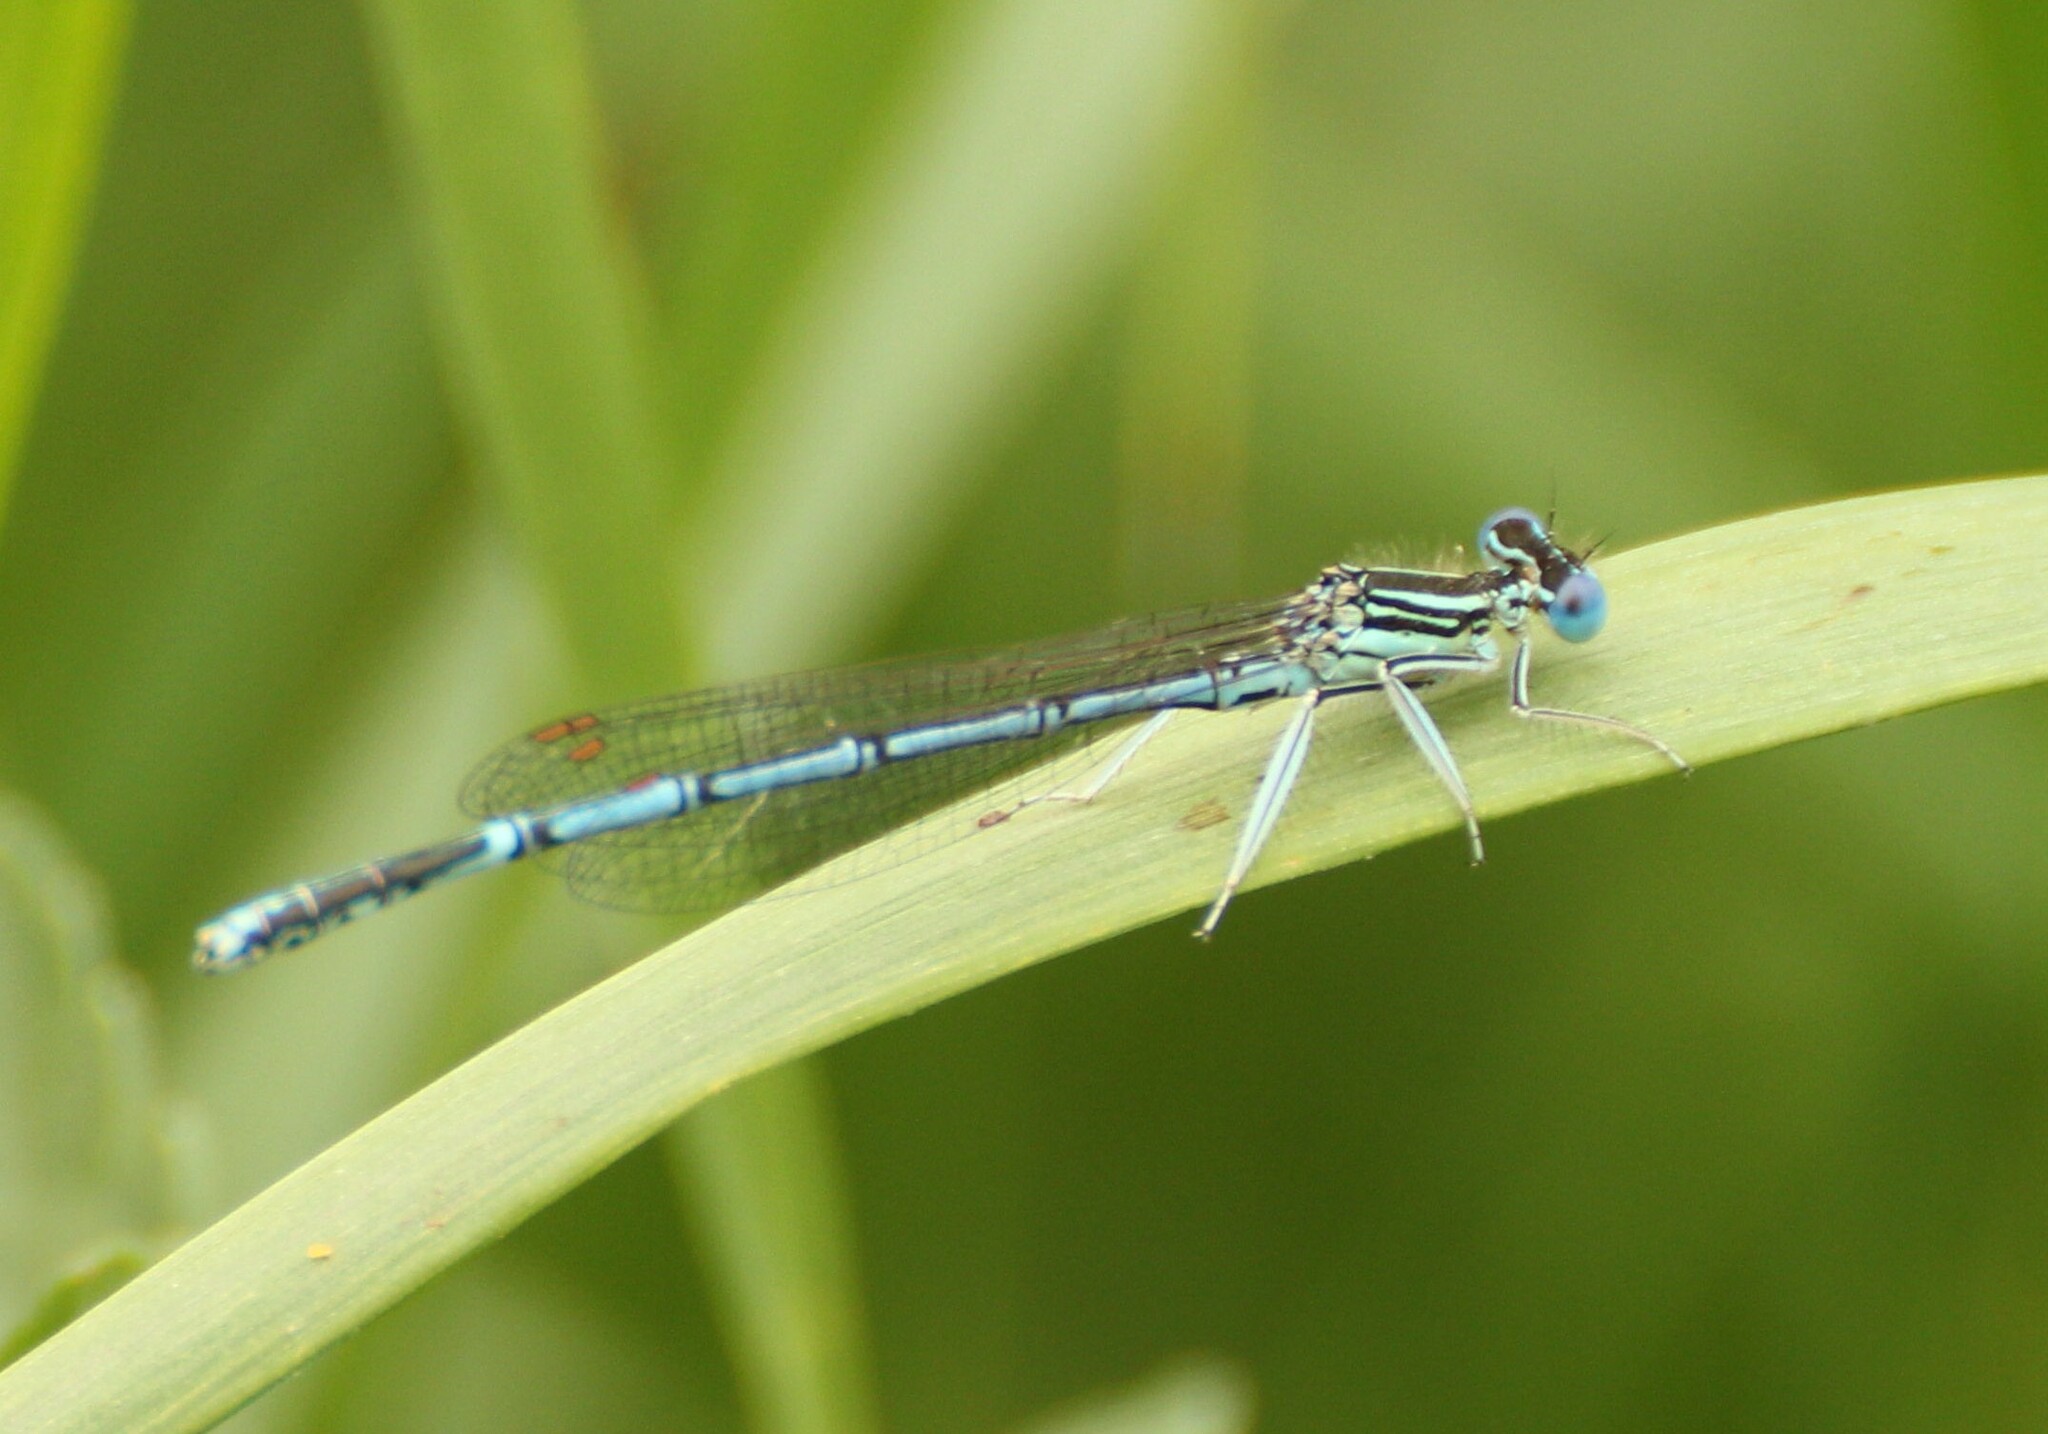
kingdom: Animalia
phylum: Arthropoda
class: Insecta
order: Odonata
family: Platycnemididae
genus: Platycnemis
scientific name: Platycnemis pennipes
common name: White-legged damselfly
